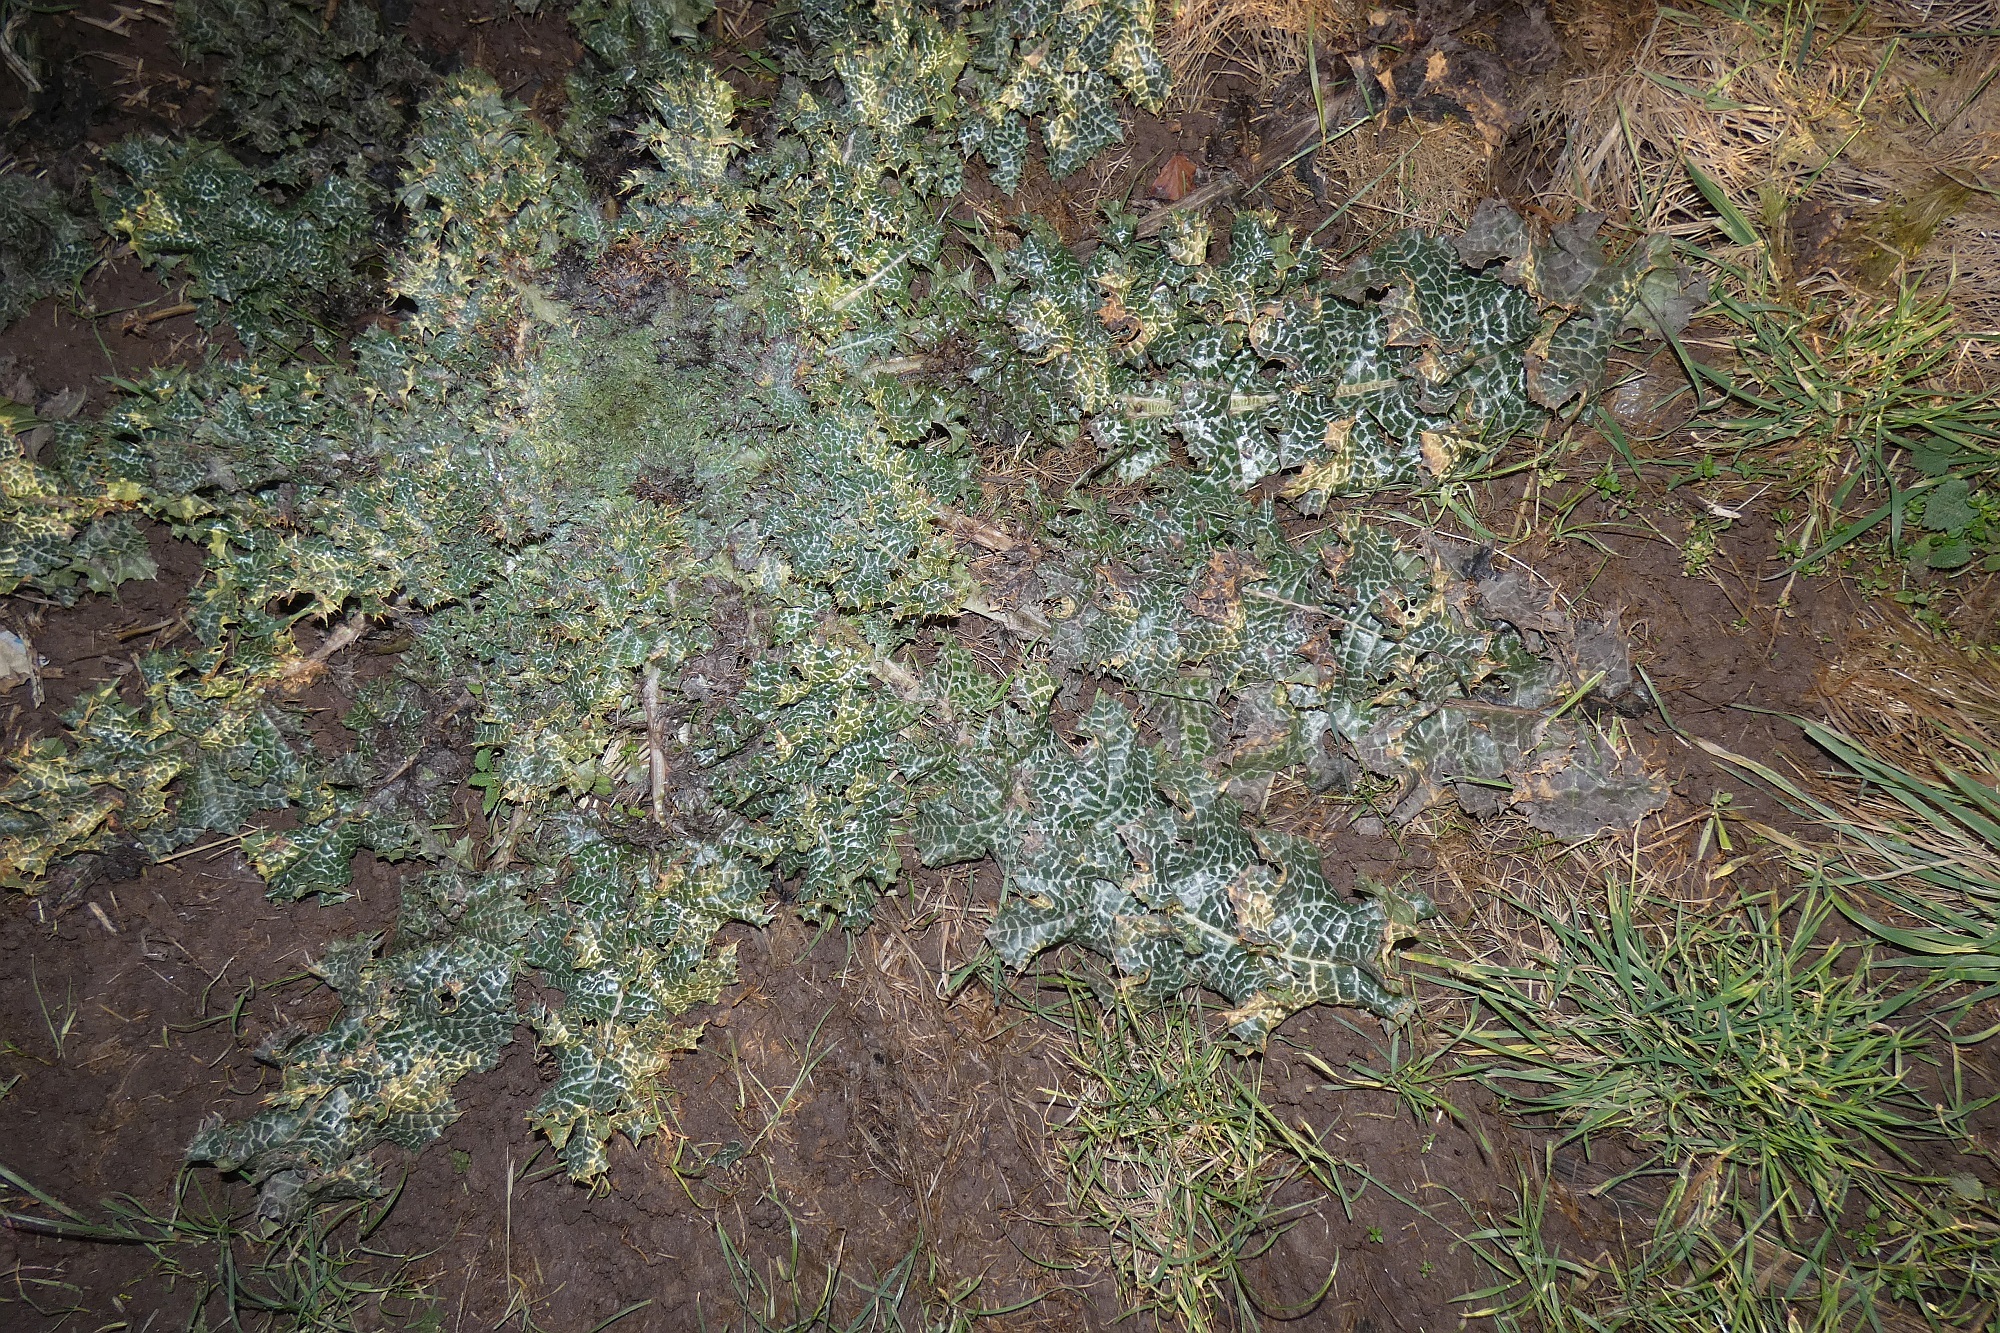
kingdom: Plantae
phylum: Tracheophyta
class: Magnoliopsida
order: Asterales
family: Asteraceae
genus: Silybum
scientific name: Silybum marianum
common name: Milk thistle
